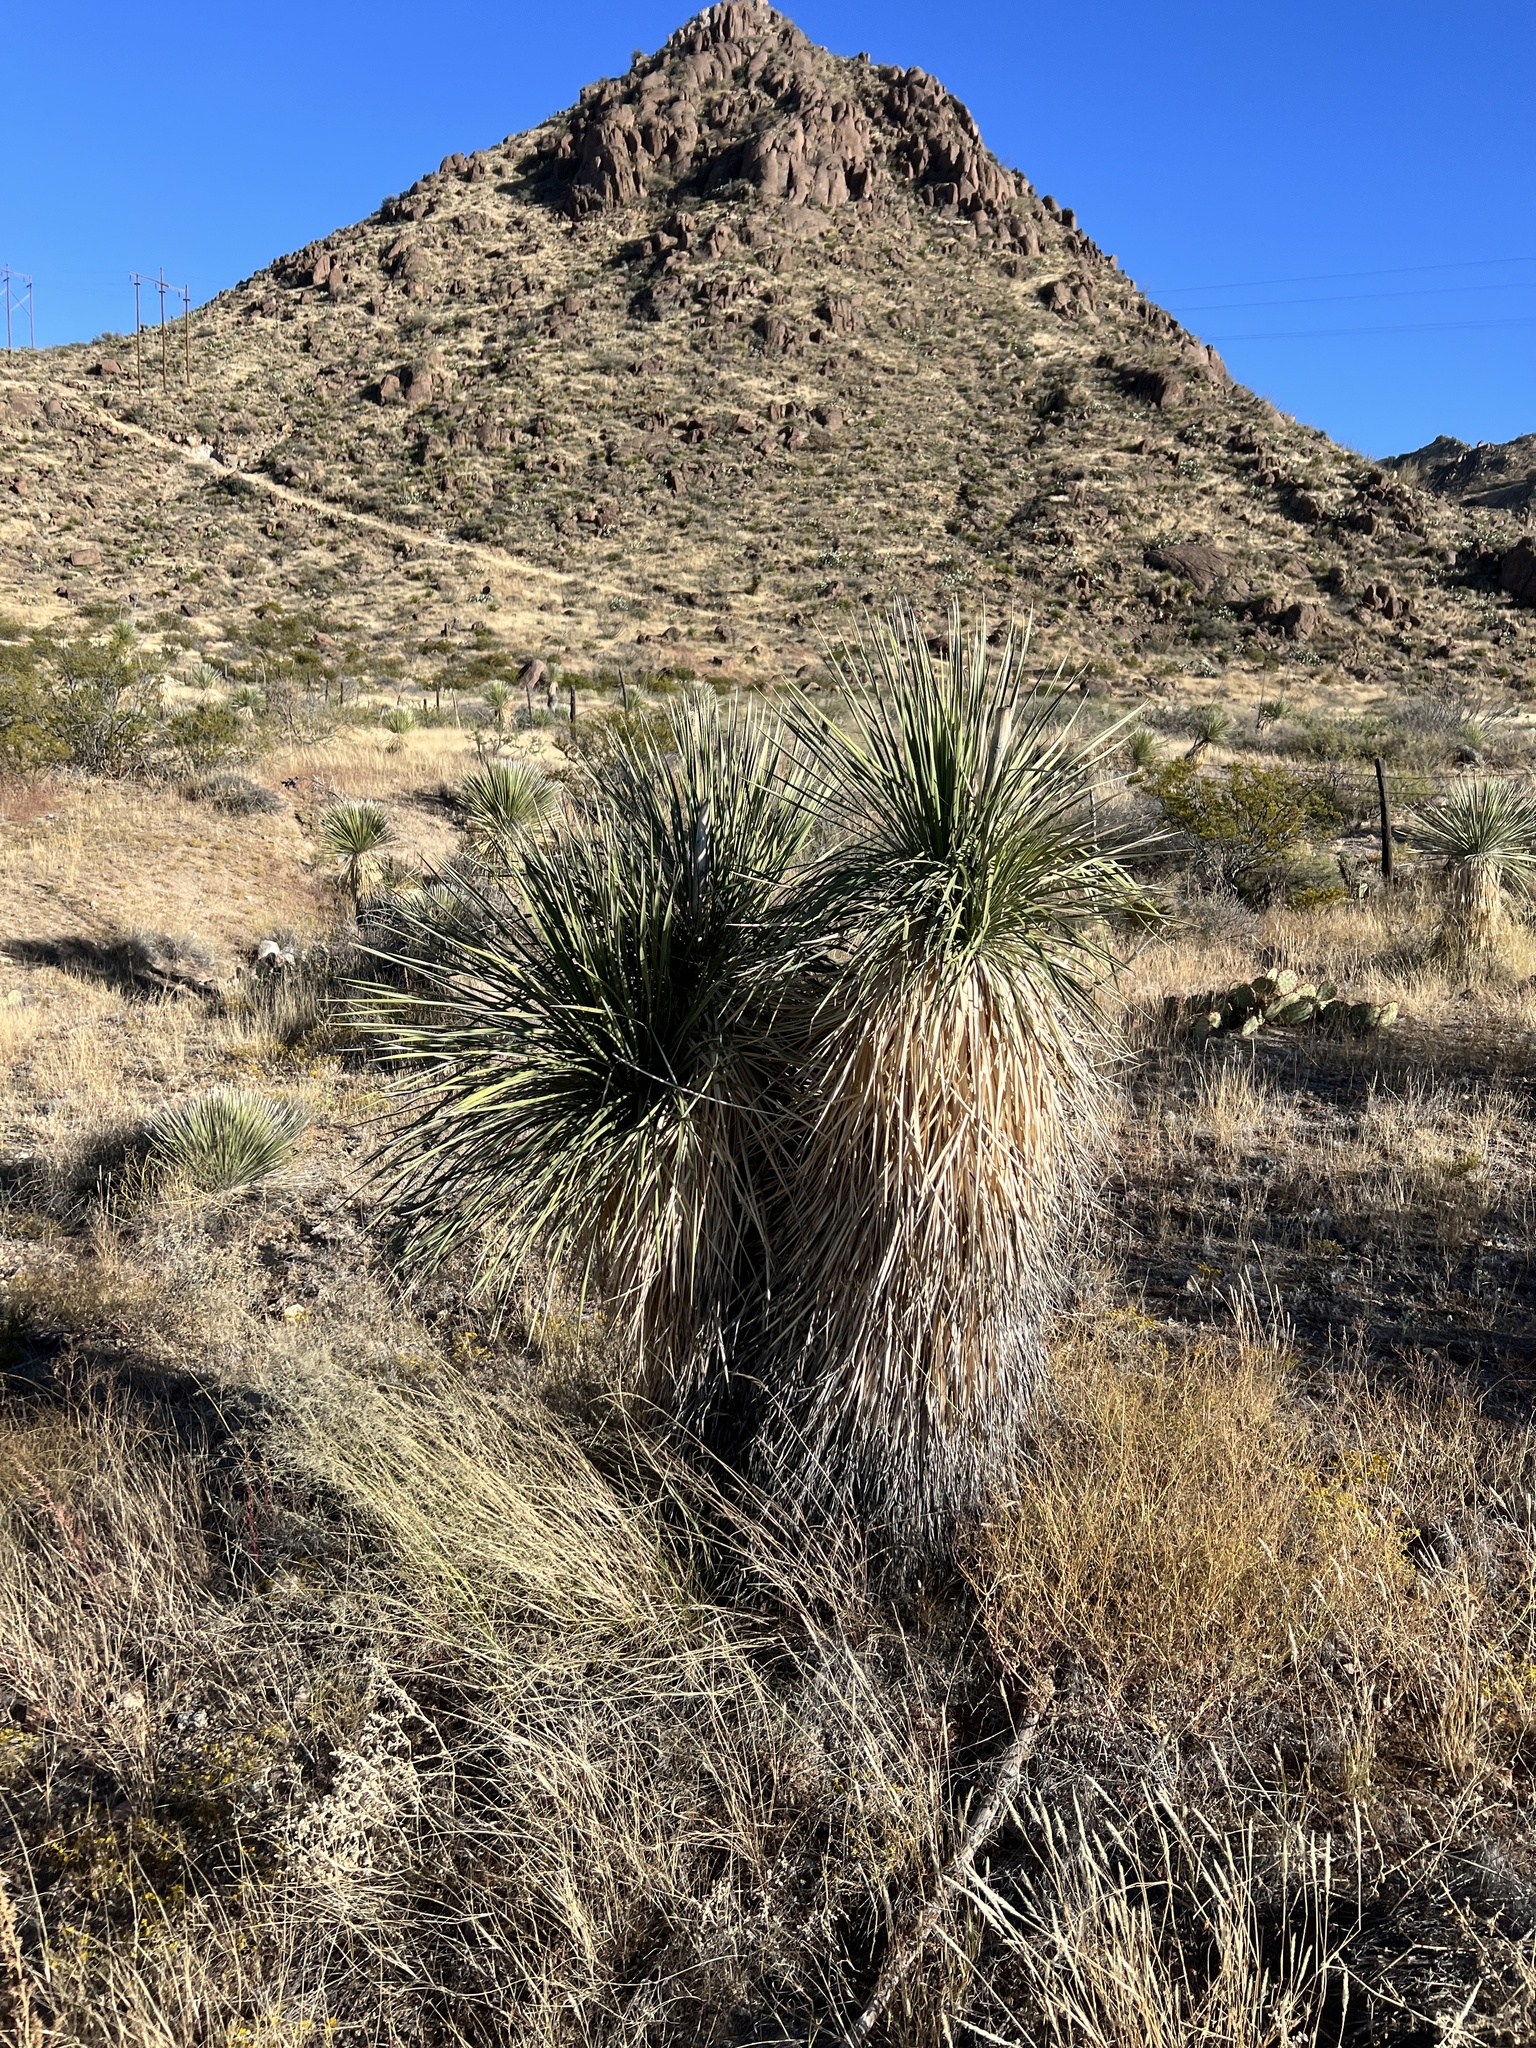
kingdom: Plantae
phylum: Tracheophyta
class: Liliopsida
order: Asparagales
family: Asparagaceae
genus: Yucca
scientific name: Yucca elata
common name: Palmella
